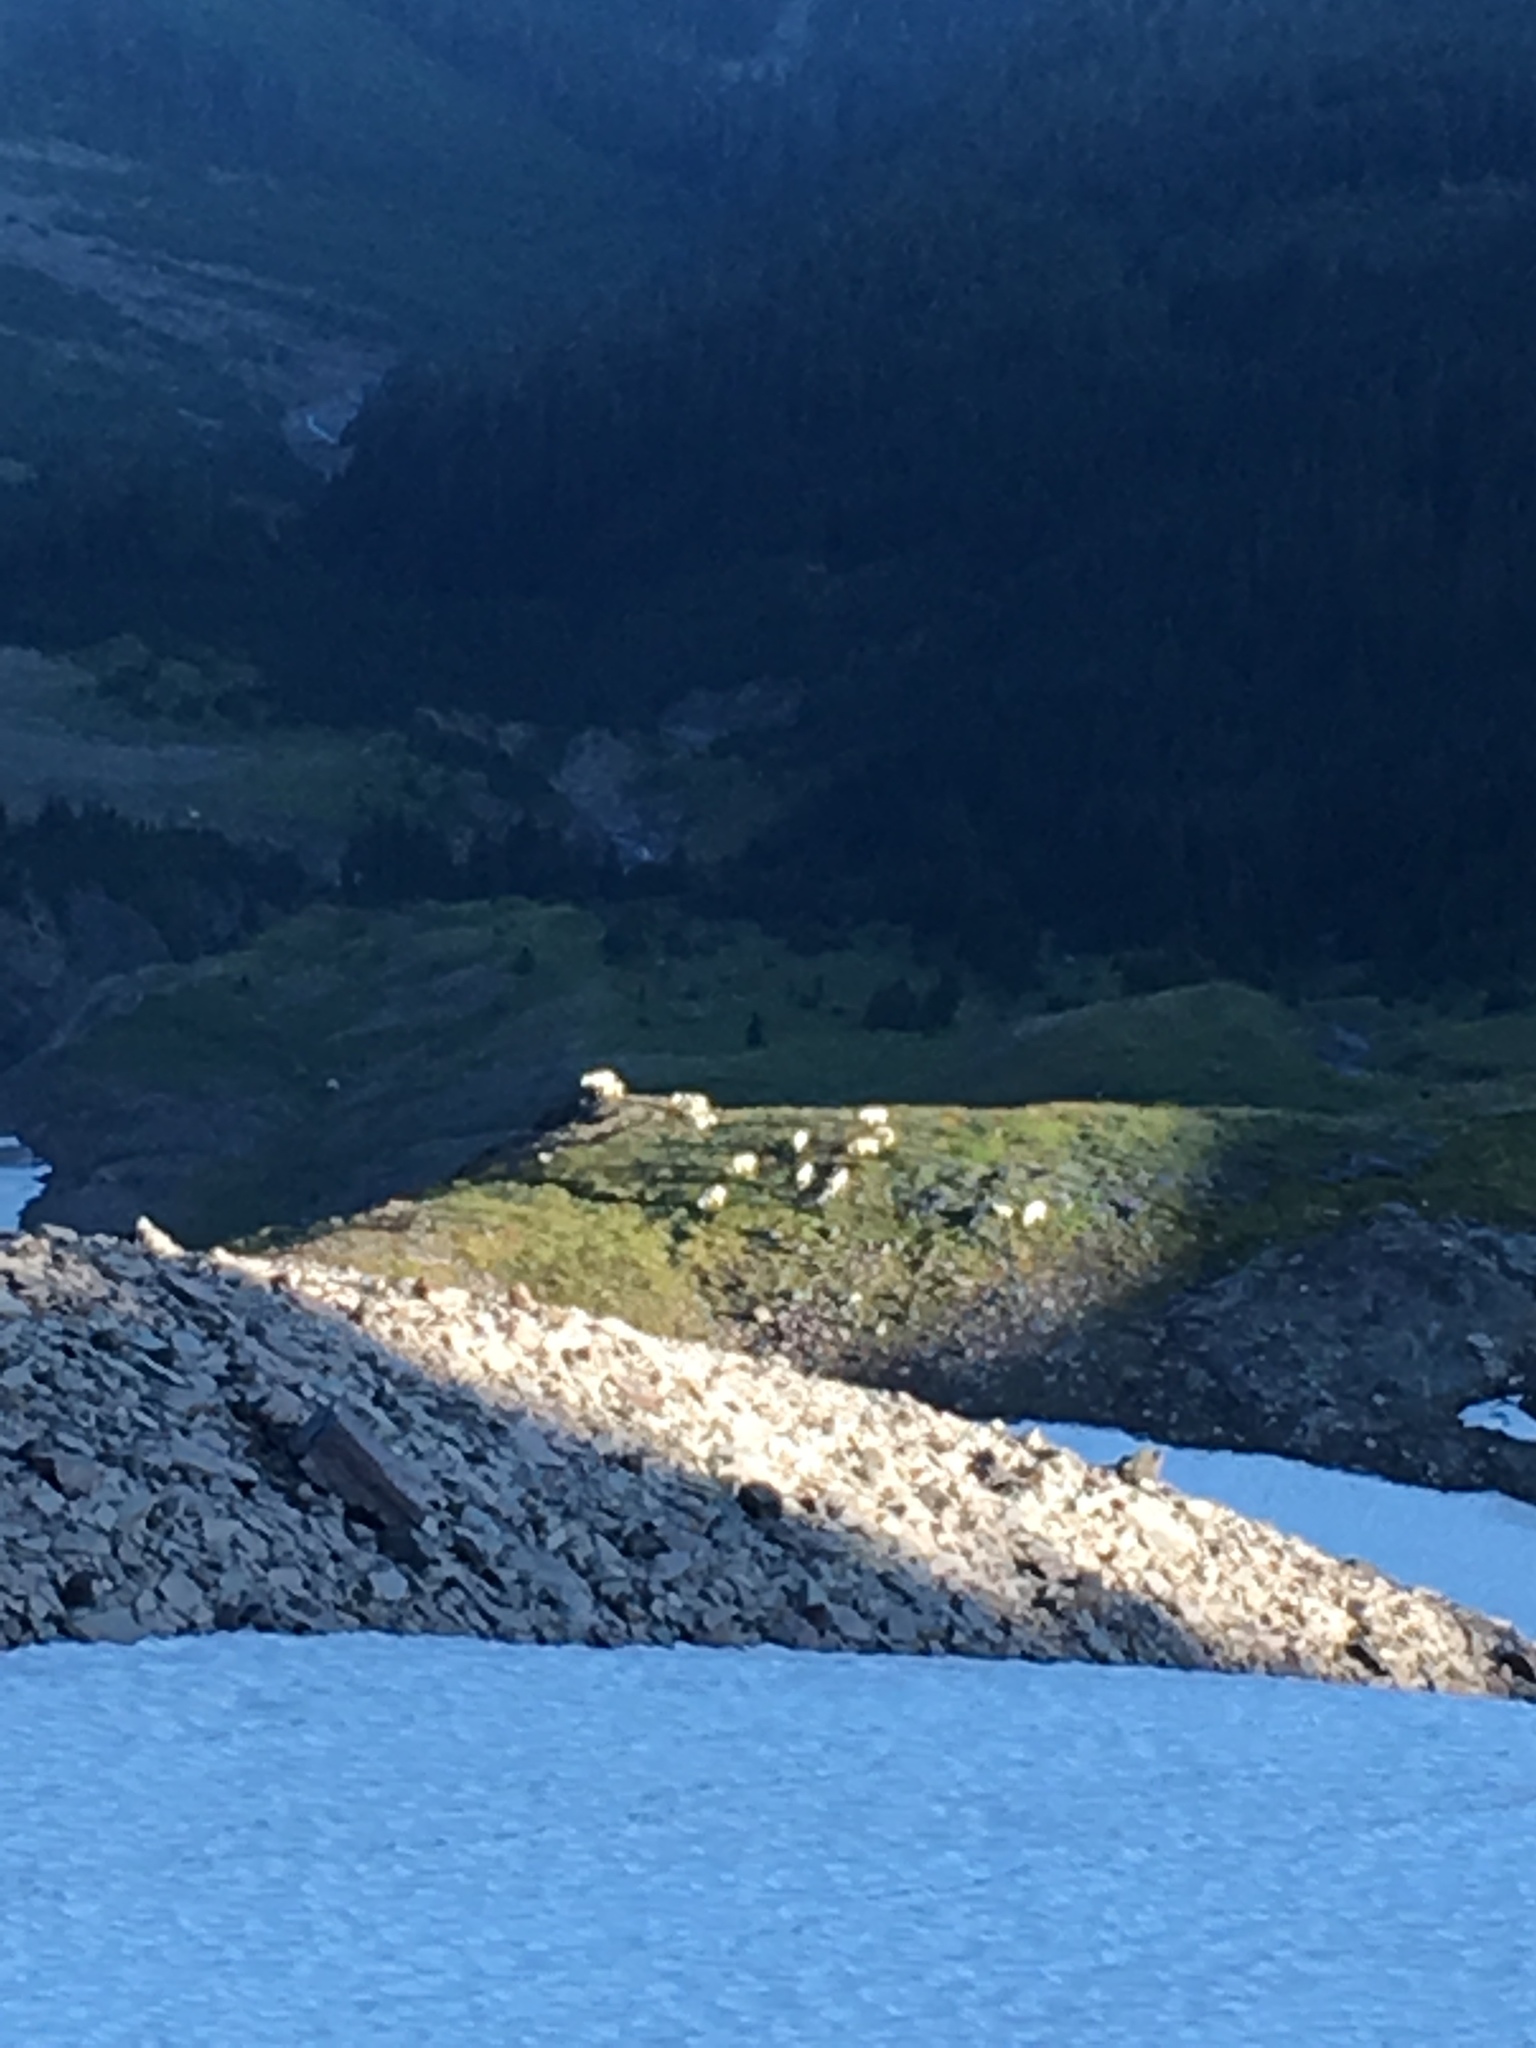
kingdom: Animalia
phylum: Chordata
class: Mammalia
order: Artiodactyla
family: Bovidae
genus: Oreamnos
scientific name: Oreamnos americanus
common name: Mountain goat
